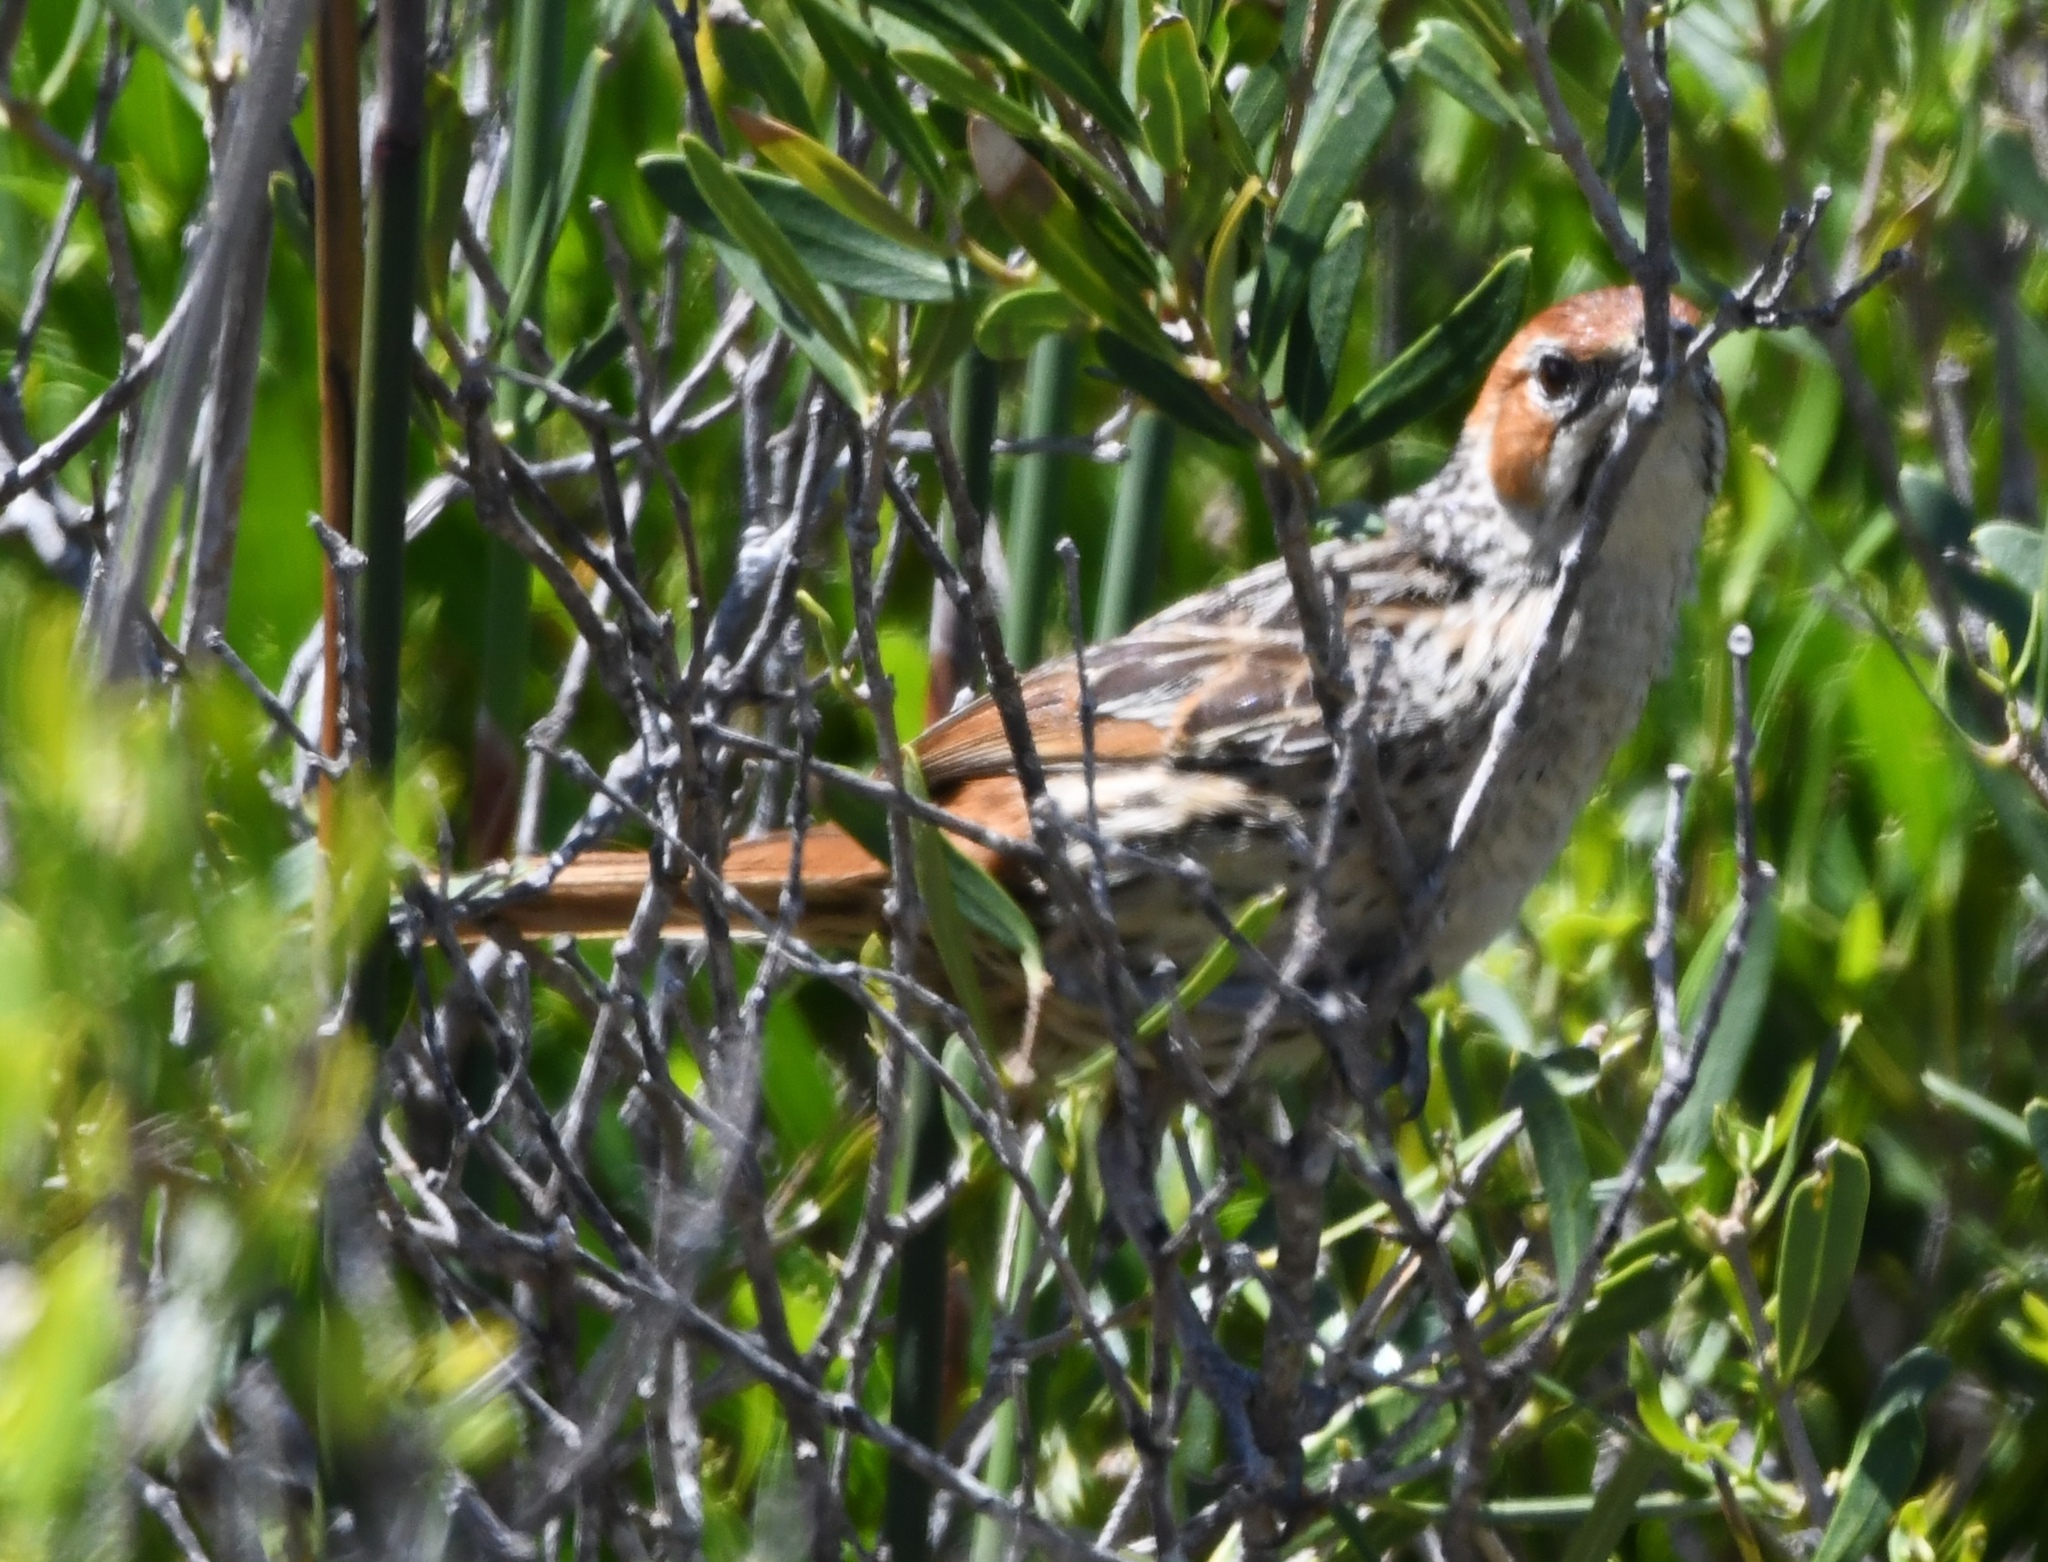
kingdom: Animalia
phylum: Chordata
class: Aves
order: Passeriformes
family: Macrosphenidae
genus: Sphenoeacus
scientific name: Sphenoeacus afer
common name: Cape grassbird
